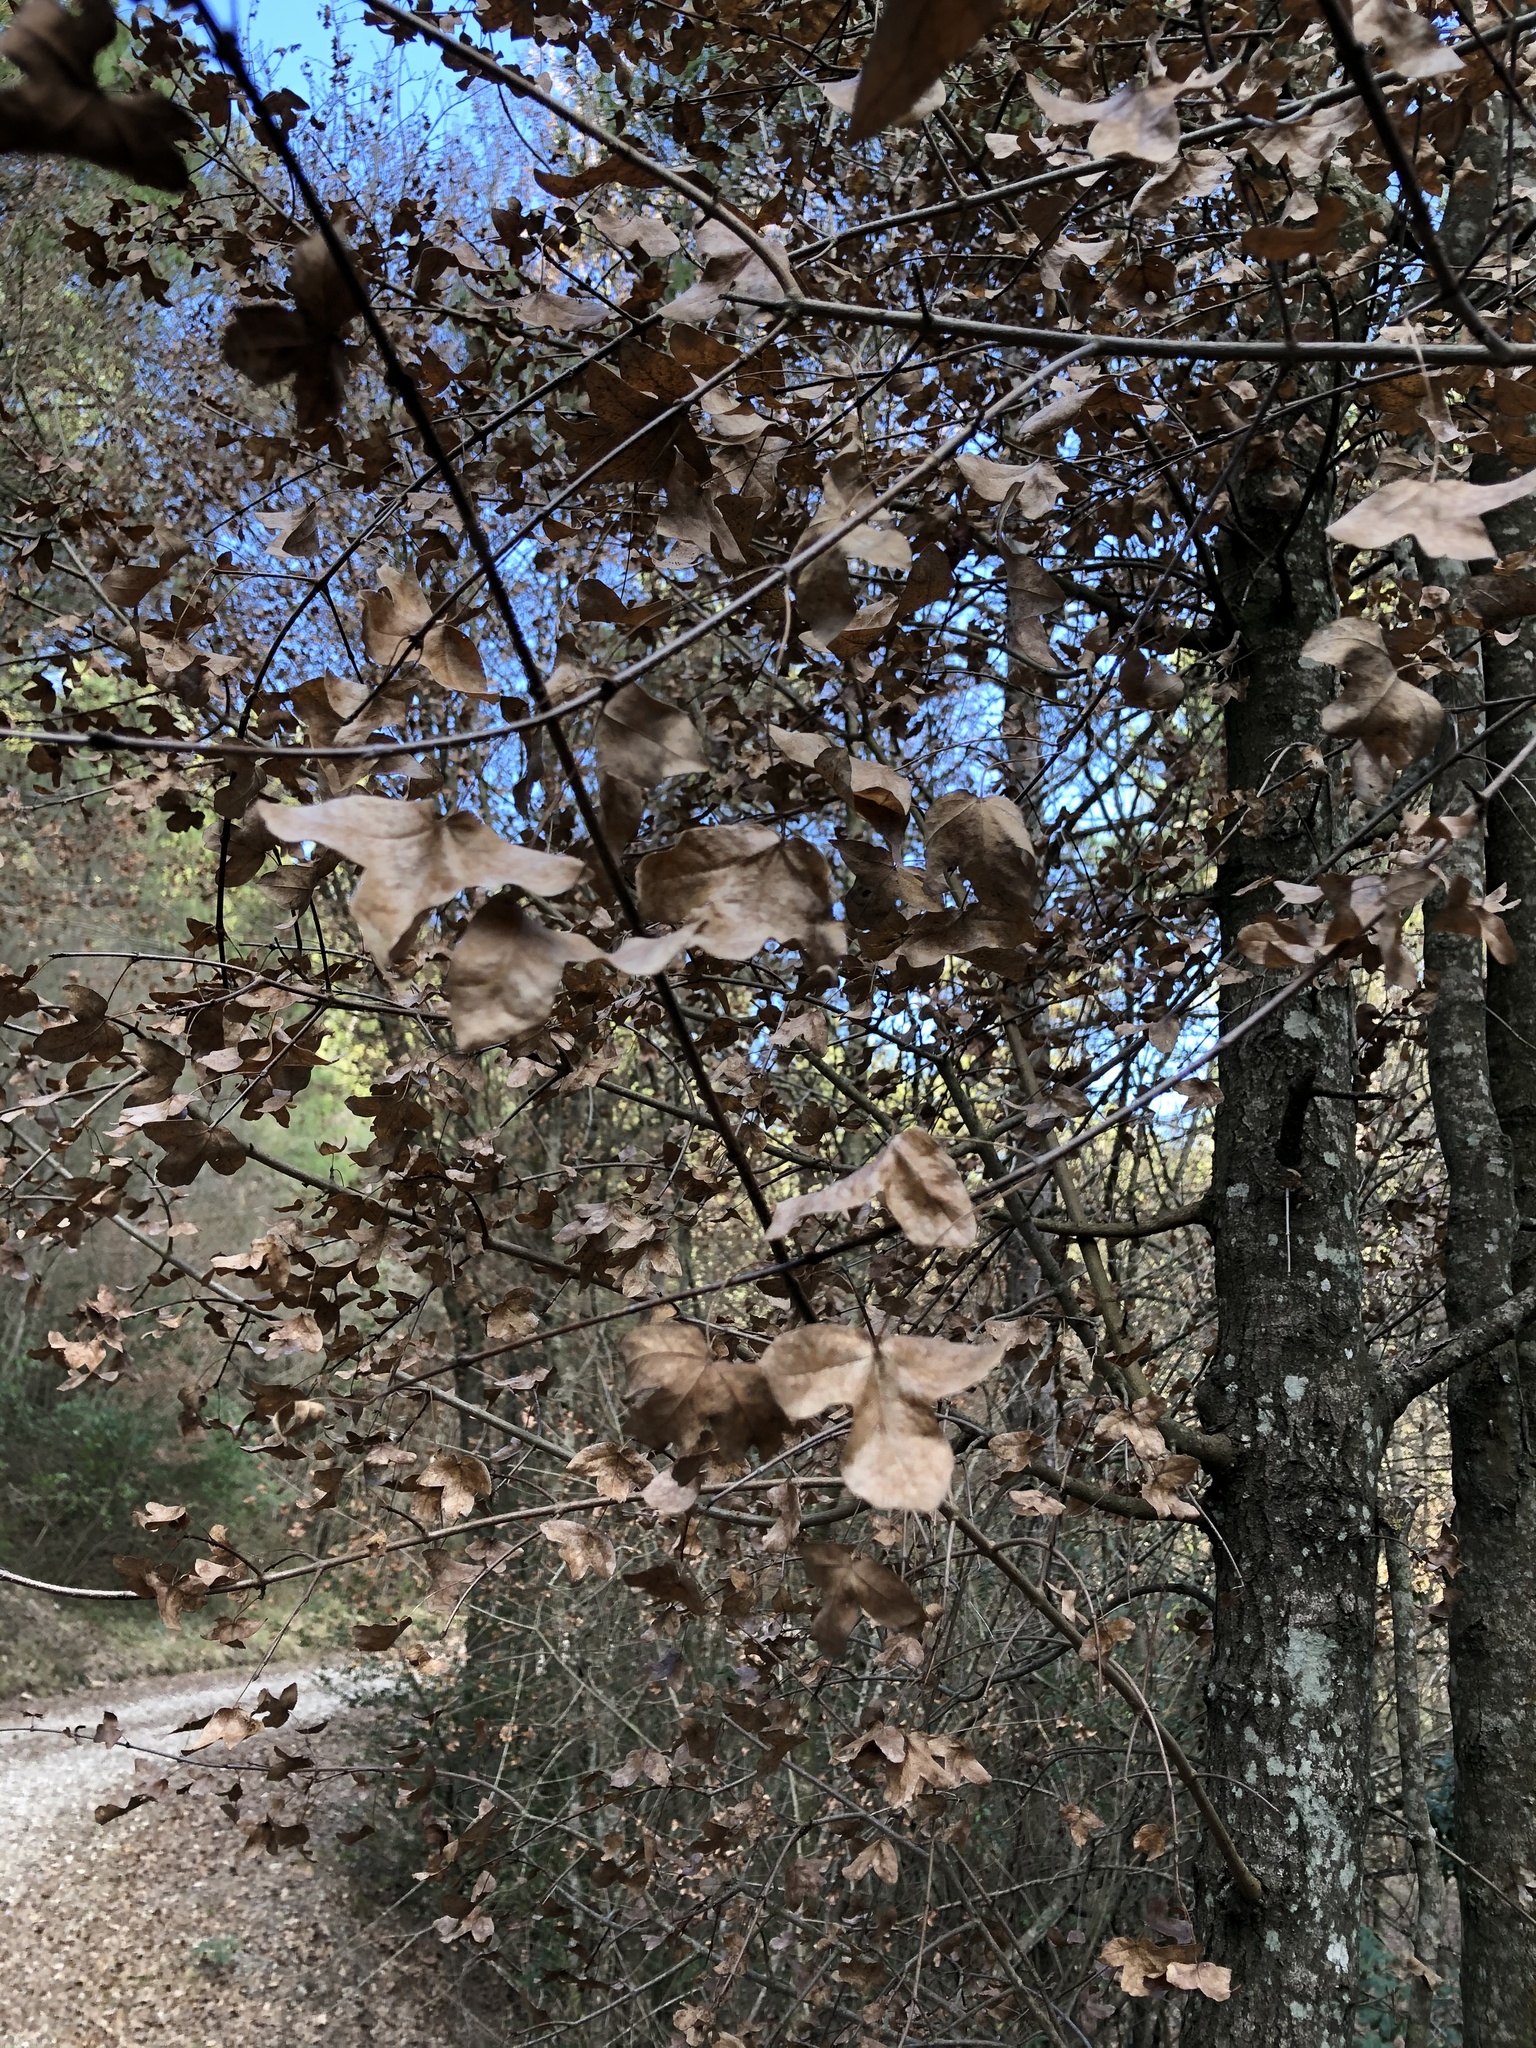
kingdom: Plantae
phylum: Tracheophyta
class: Magnoliopsida
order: Sapindales
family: Sapindaceae
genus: Acer
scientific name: Acer monspessulanum
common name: Montpellier maple
